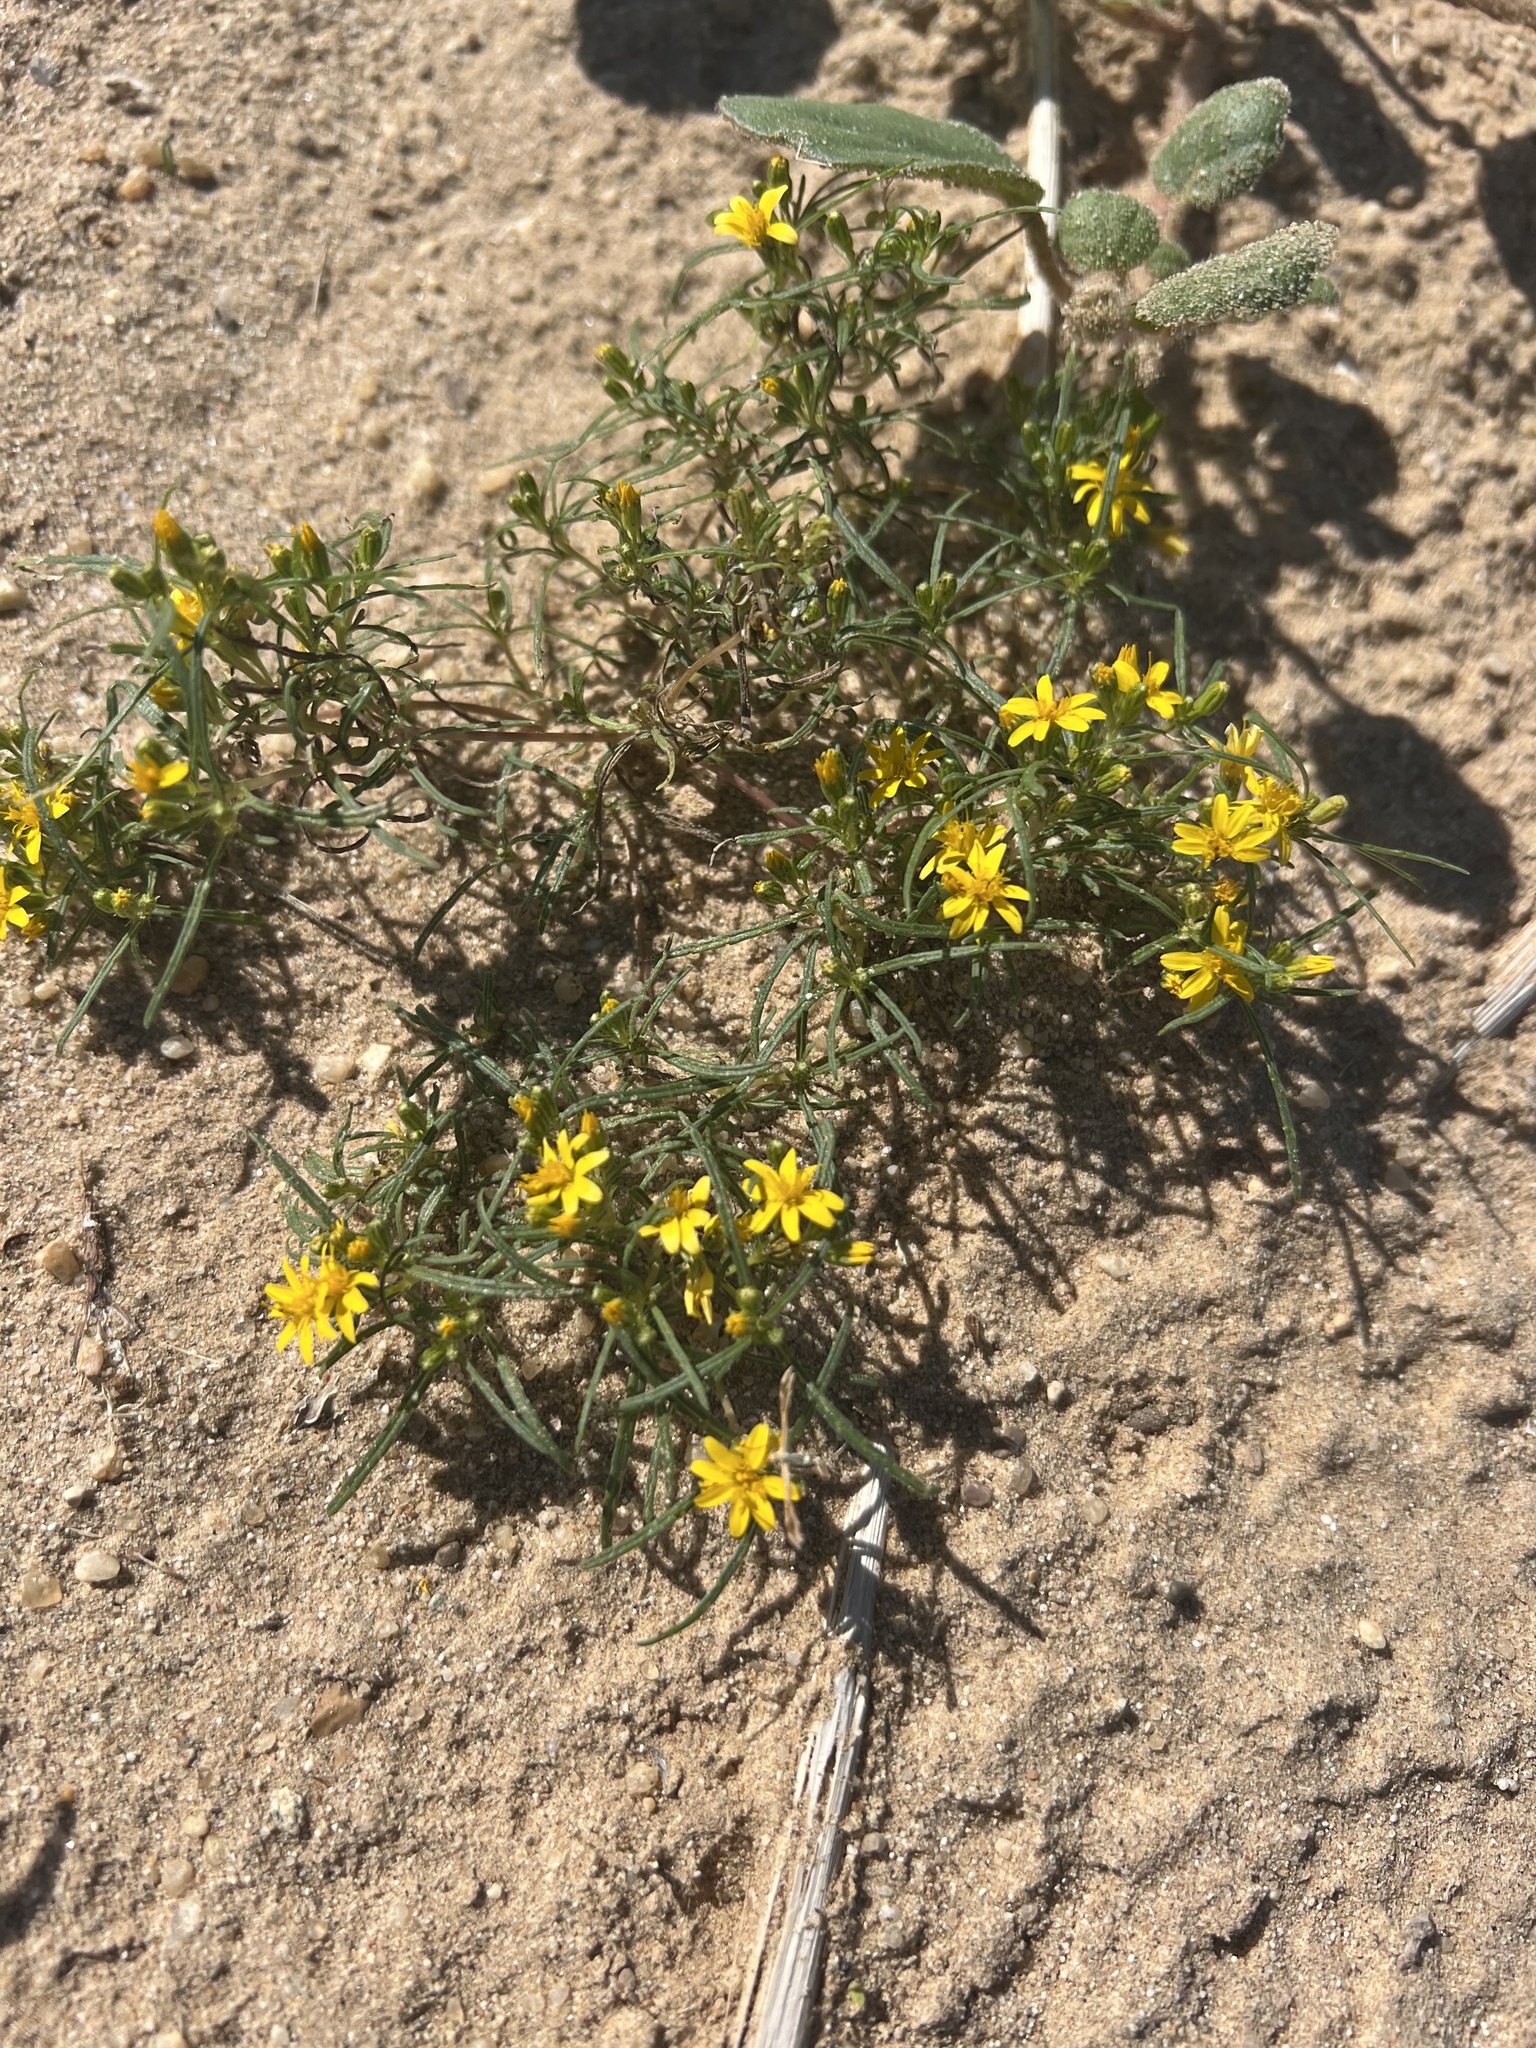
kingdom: Plantae
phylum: Tracheophyta
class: Magnoliopsida
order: Asterales
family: Asteraceae
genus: Pectis
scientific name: Pectis papposa
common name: Many-bristle chinchweed
